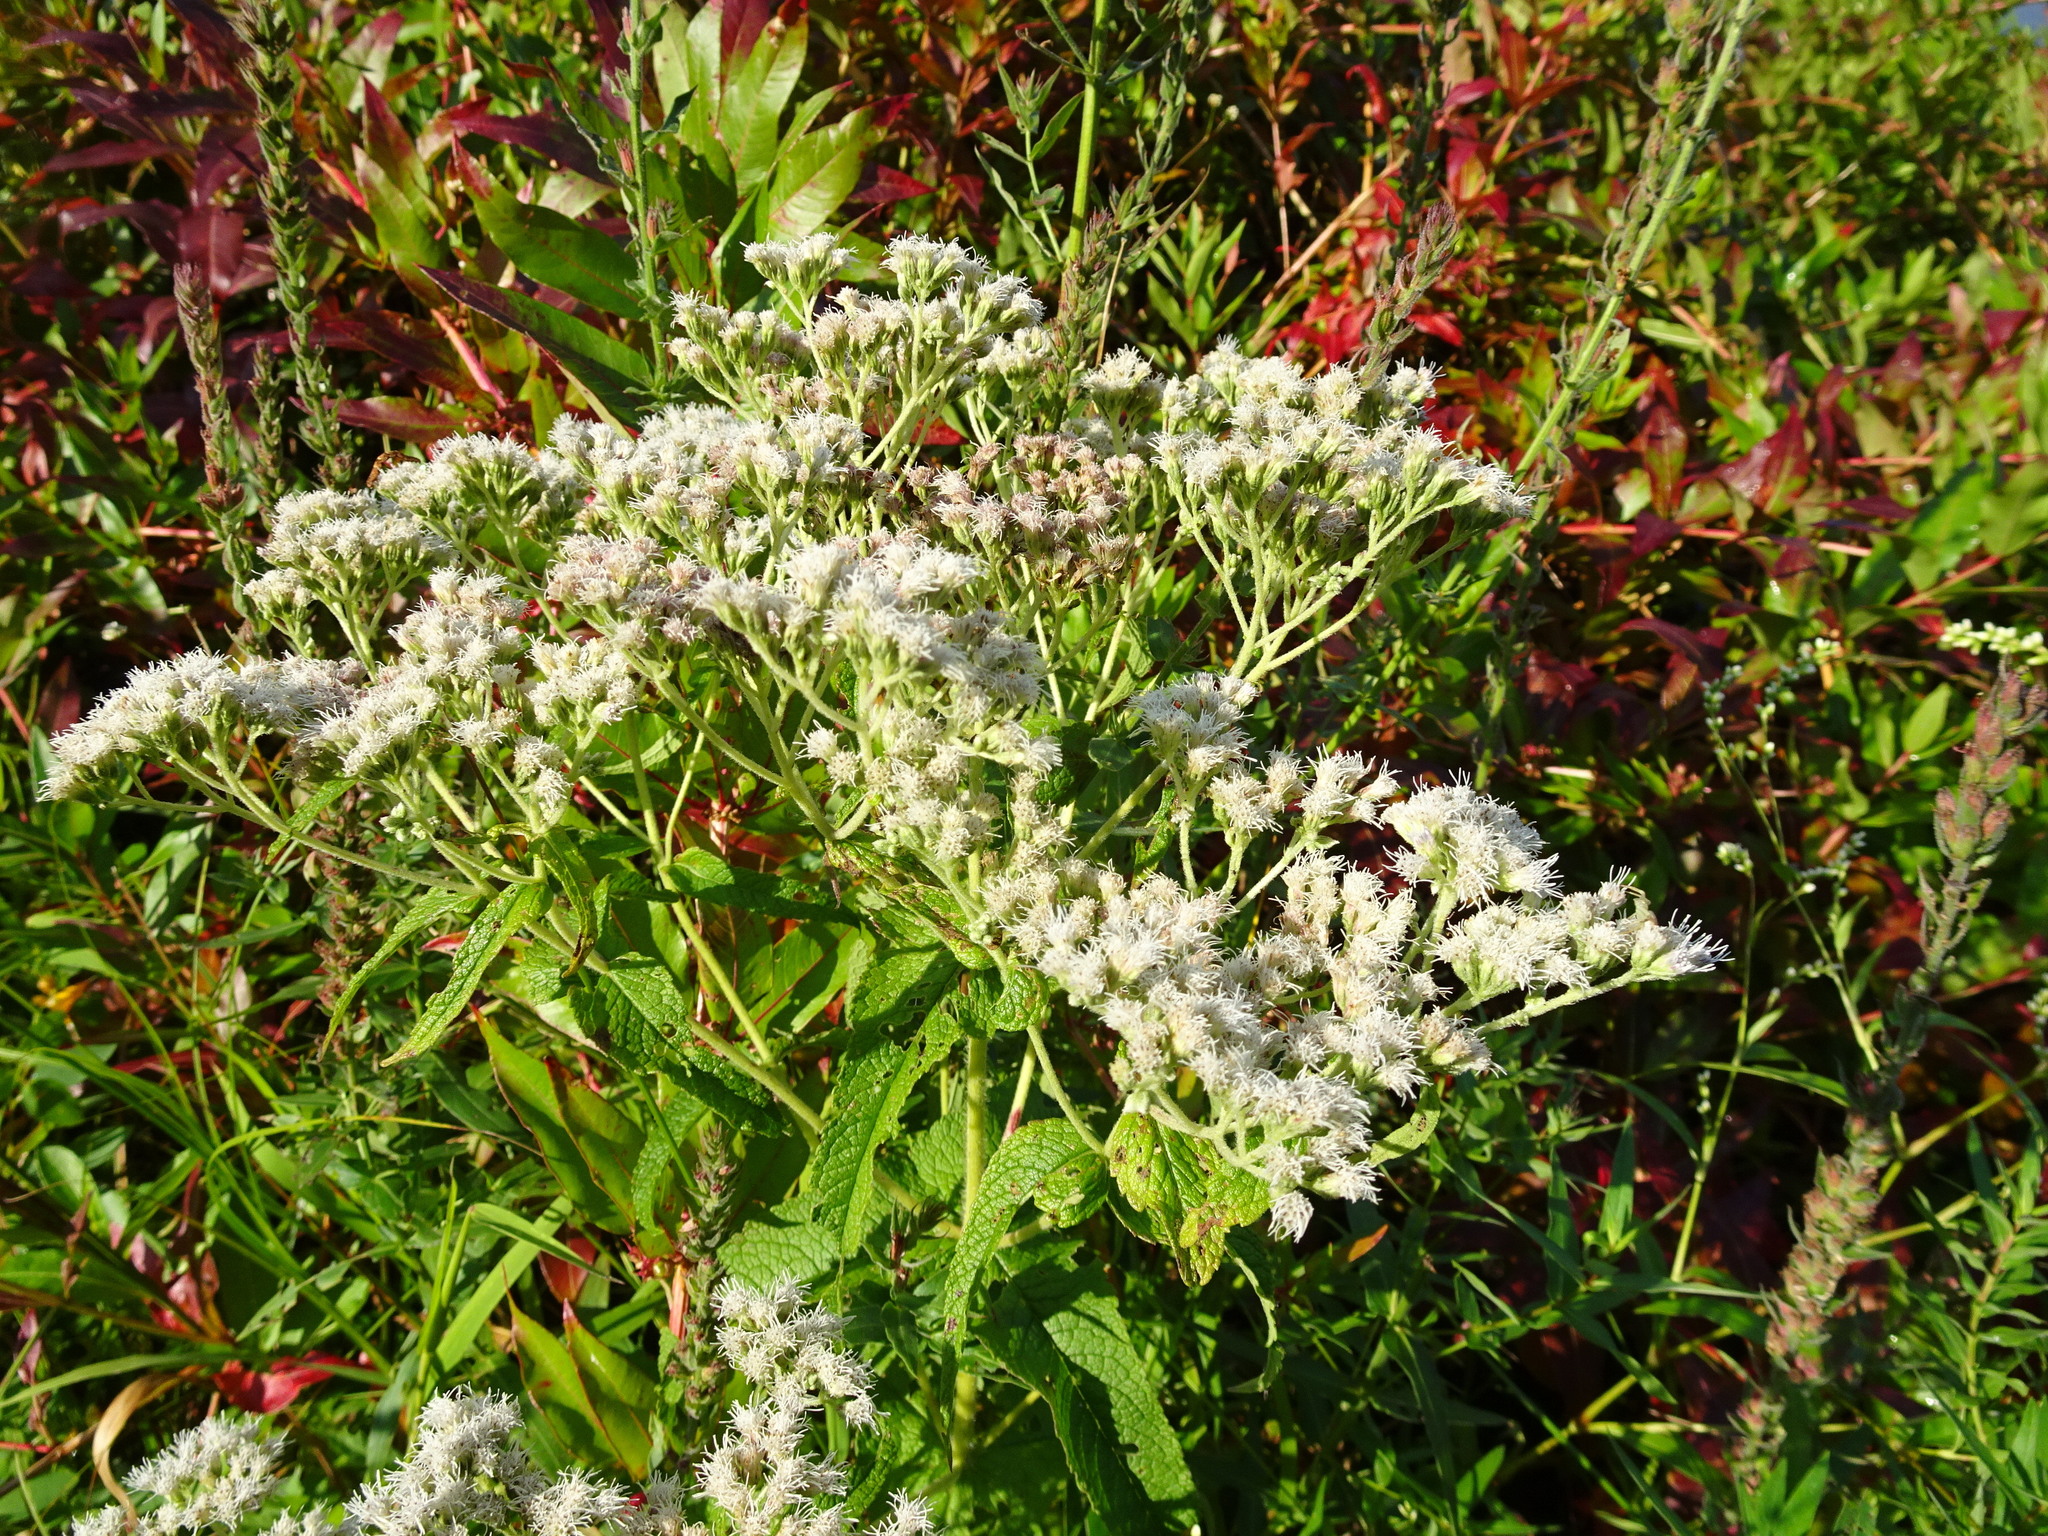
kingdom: Plantae
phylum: Tracheophyta
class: Magnoliopsida
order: Asterales
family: Asteraceae
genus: Eupatorium
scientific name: Eupatorium perfoliatum
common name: Boneset
